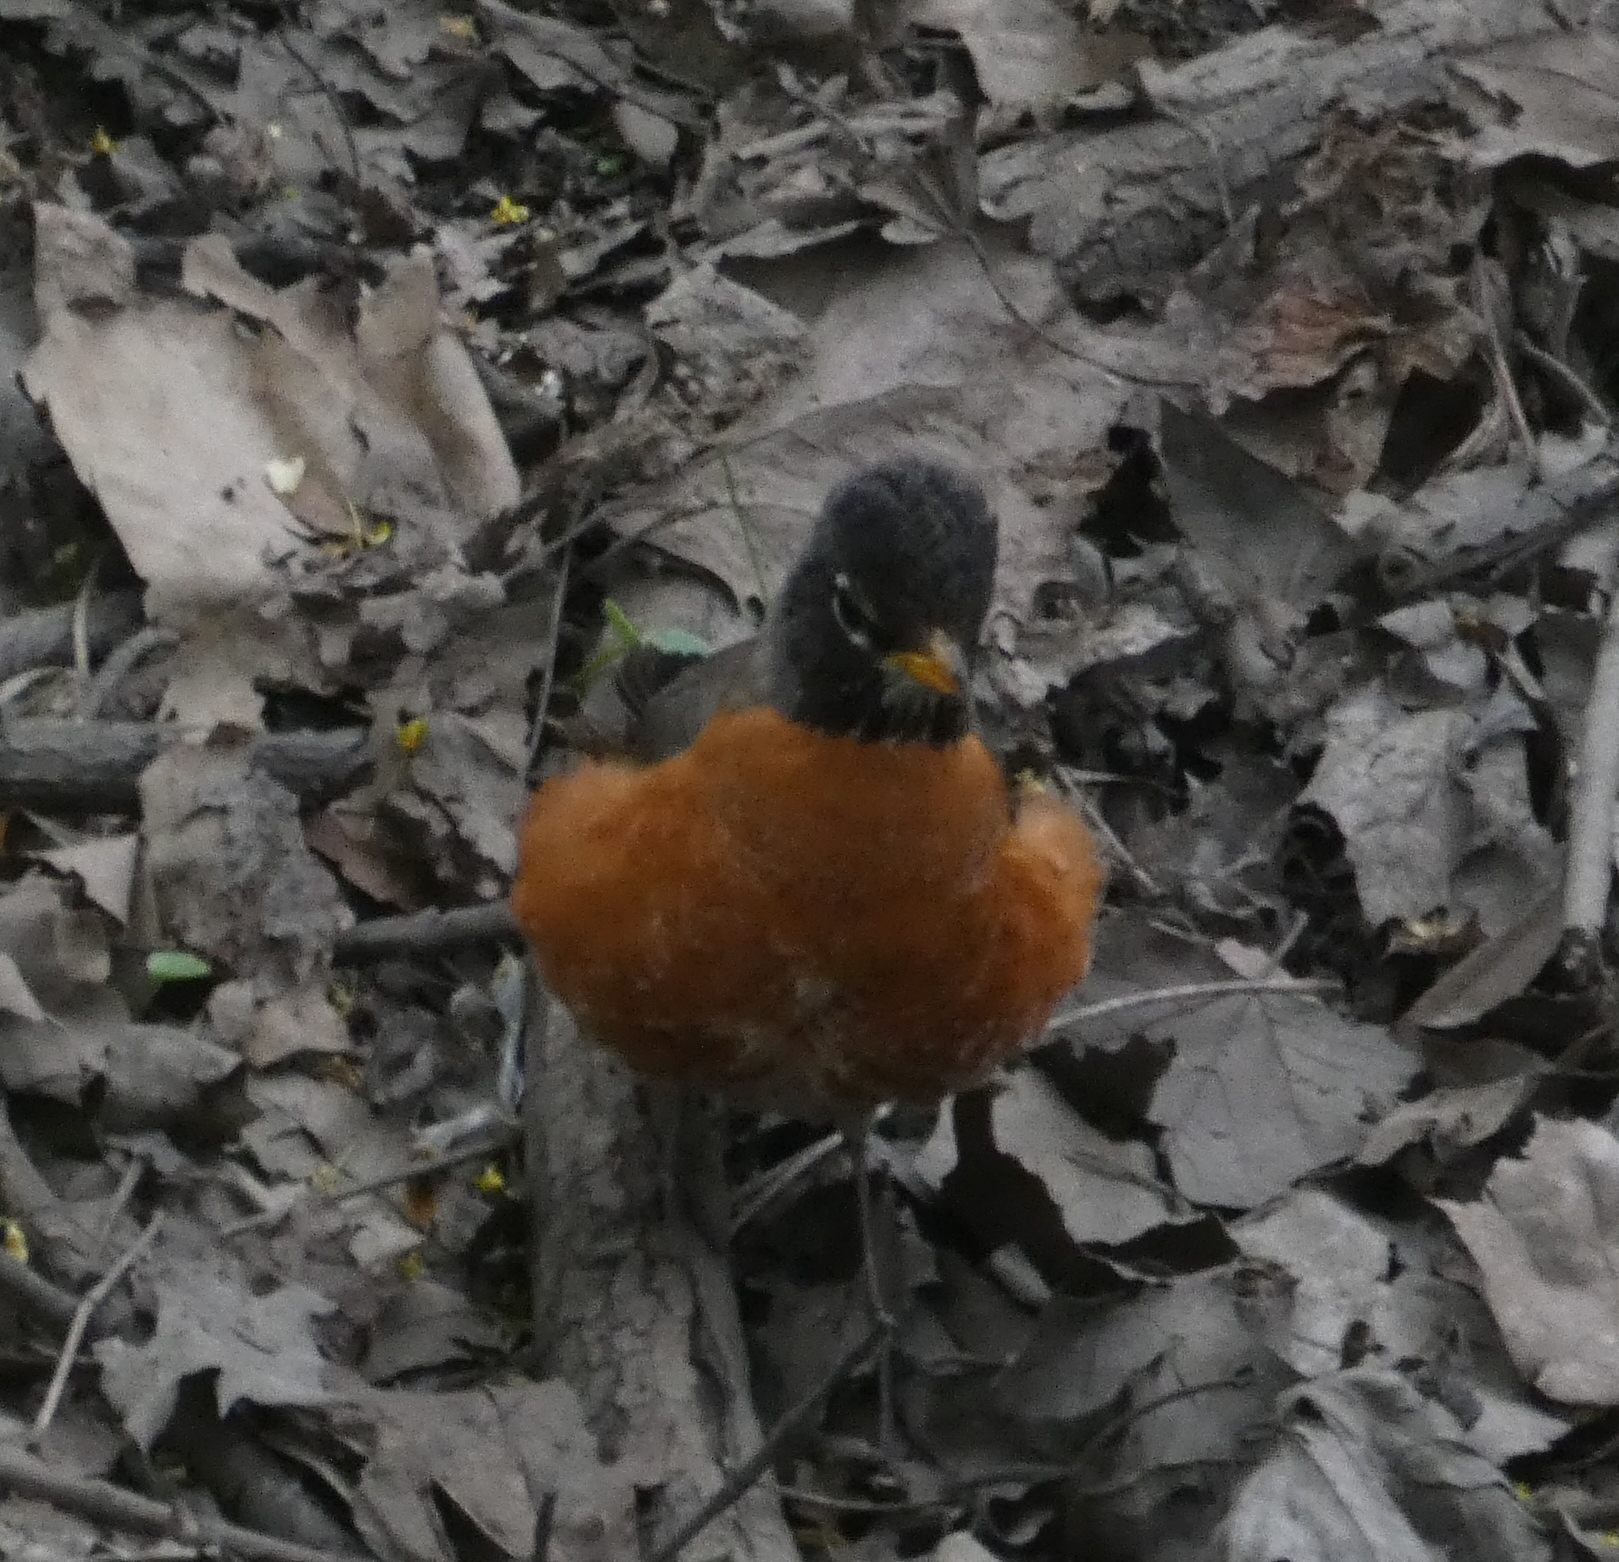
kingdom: Animalia
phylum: Chordata
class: Aves
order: Passeriformes
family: Turdidae
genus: Turdus
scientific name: Turdus migratorius
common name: American robin
